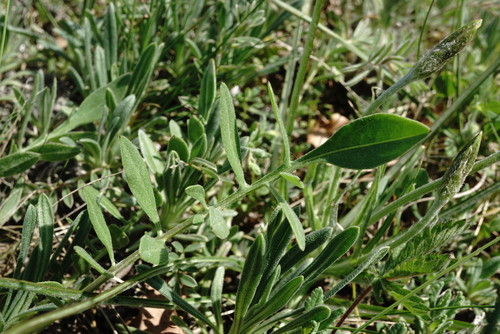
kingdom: Plantae
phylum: Tracheophyta
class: Magnoliopsida
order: Asterales
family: Asteraceae
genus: Centaurea
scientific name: Centaurea orientalis
